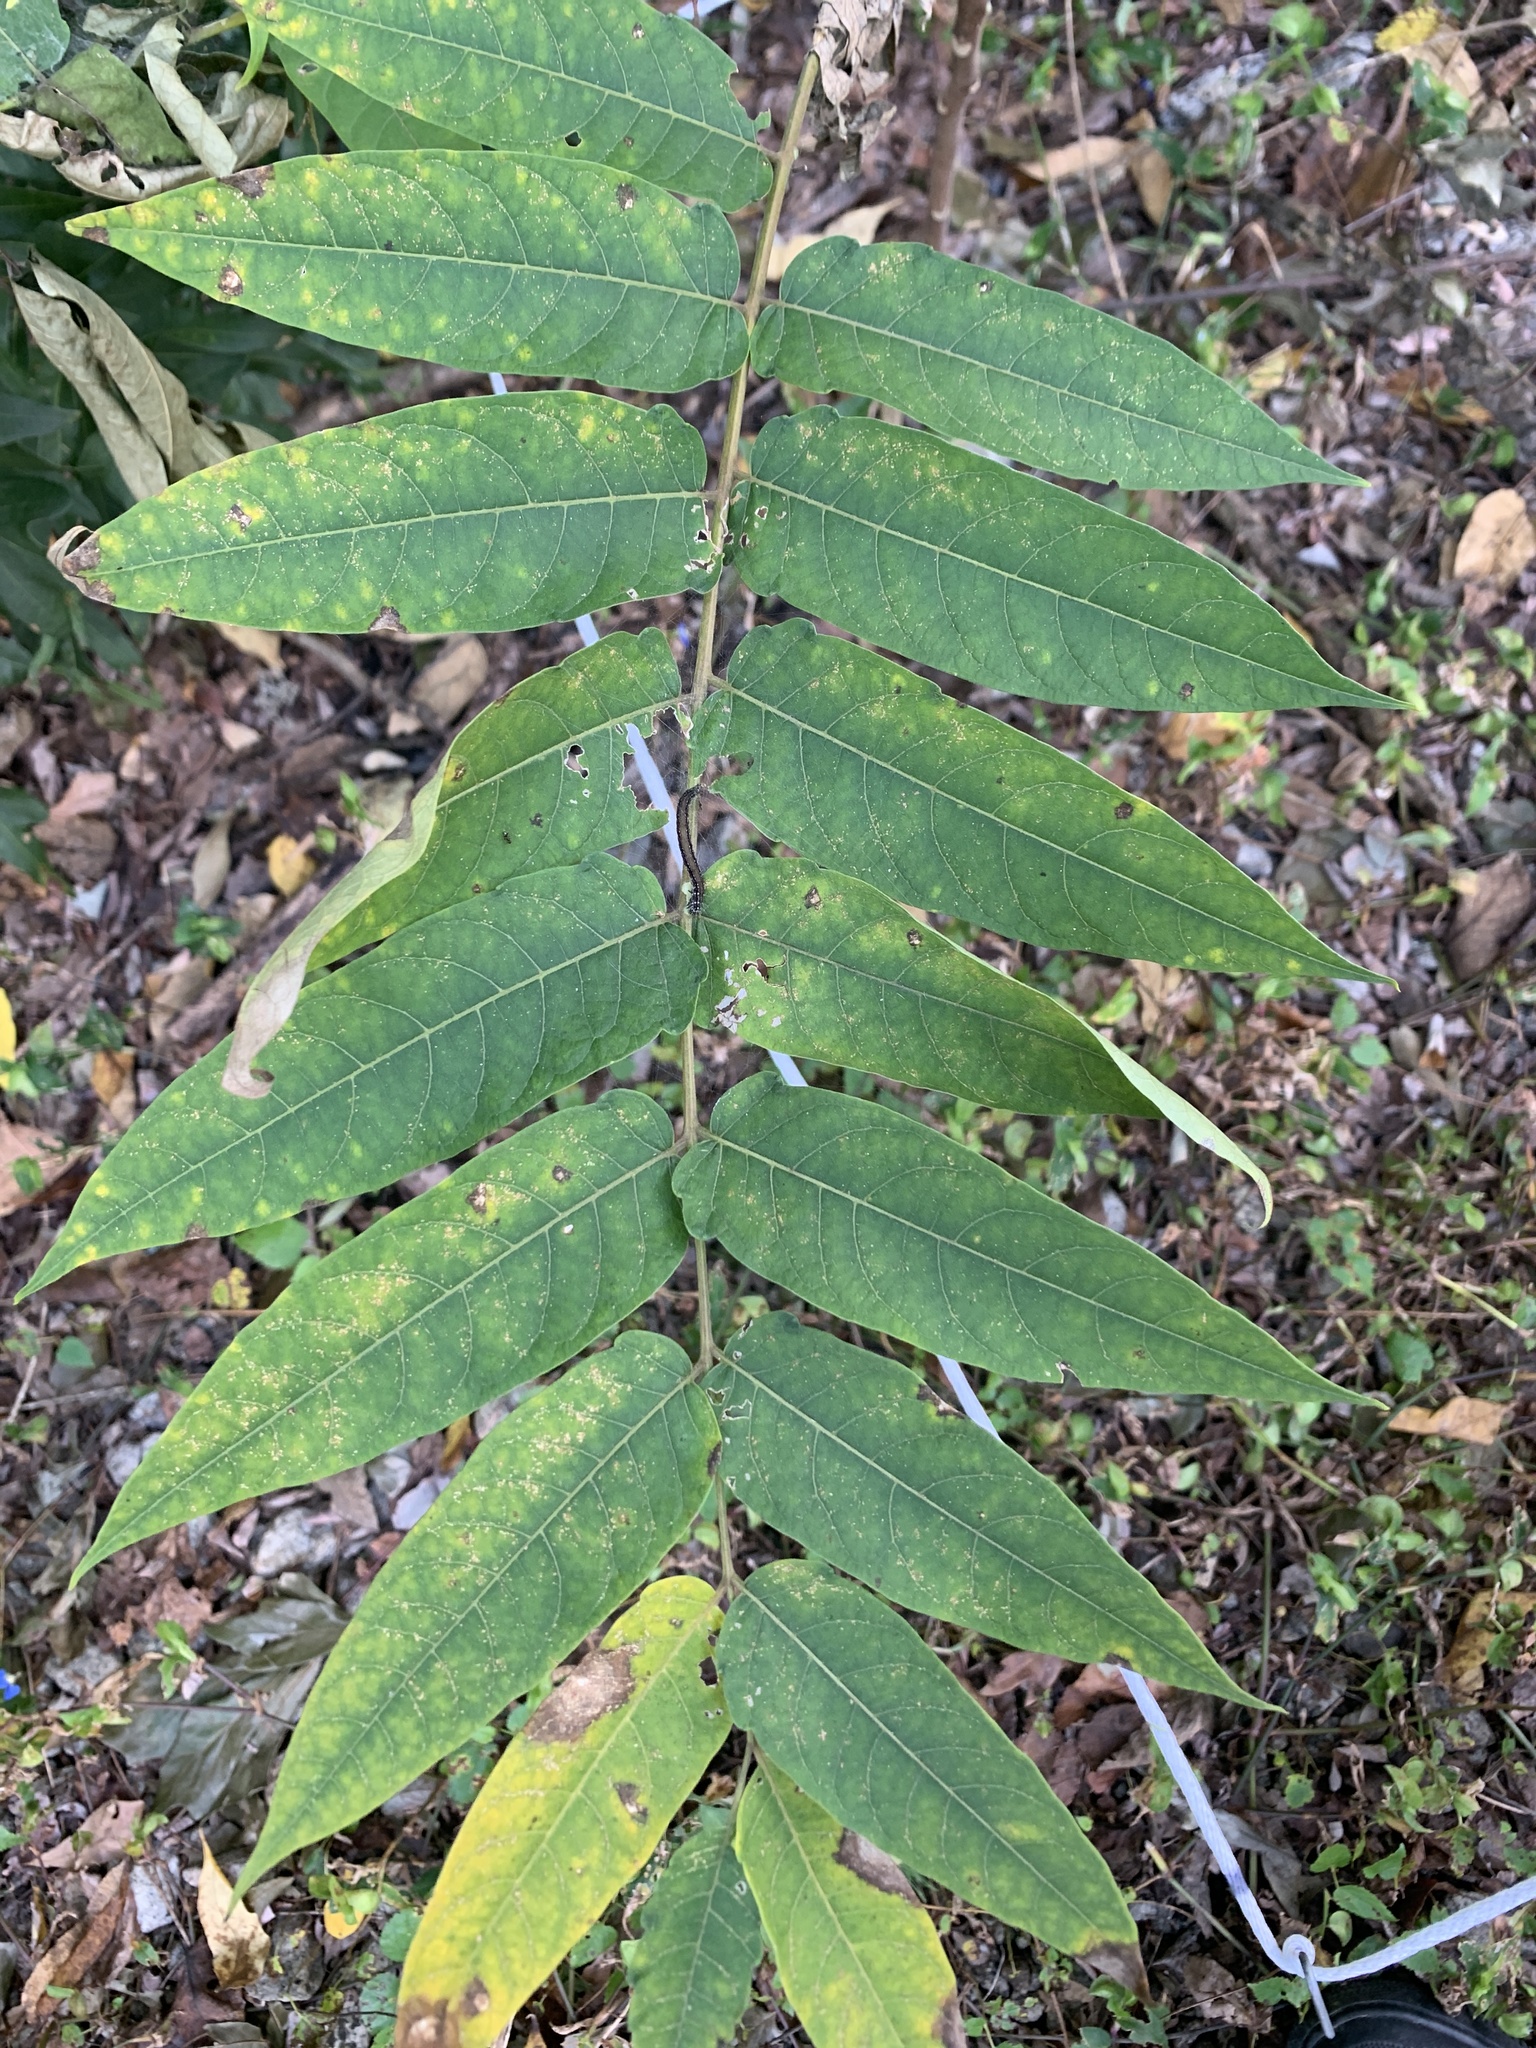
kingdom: Plantae
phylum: Tracheophyta
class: Magnoliopsida
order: Sapindales
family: Simaroubaceae
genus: Ailanthus
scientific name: Ailanthus altissima
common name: Tree-of-heaven
